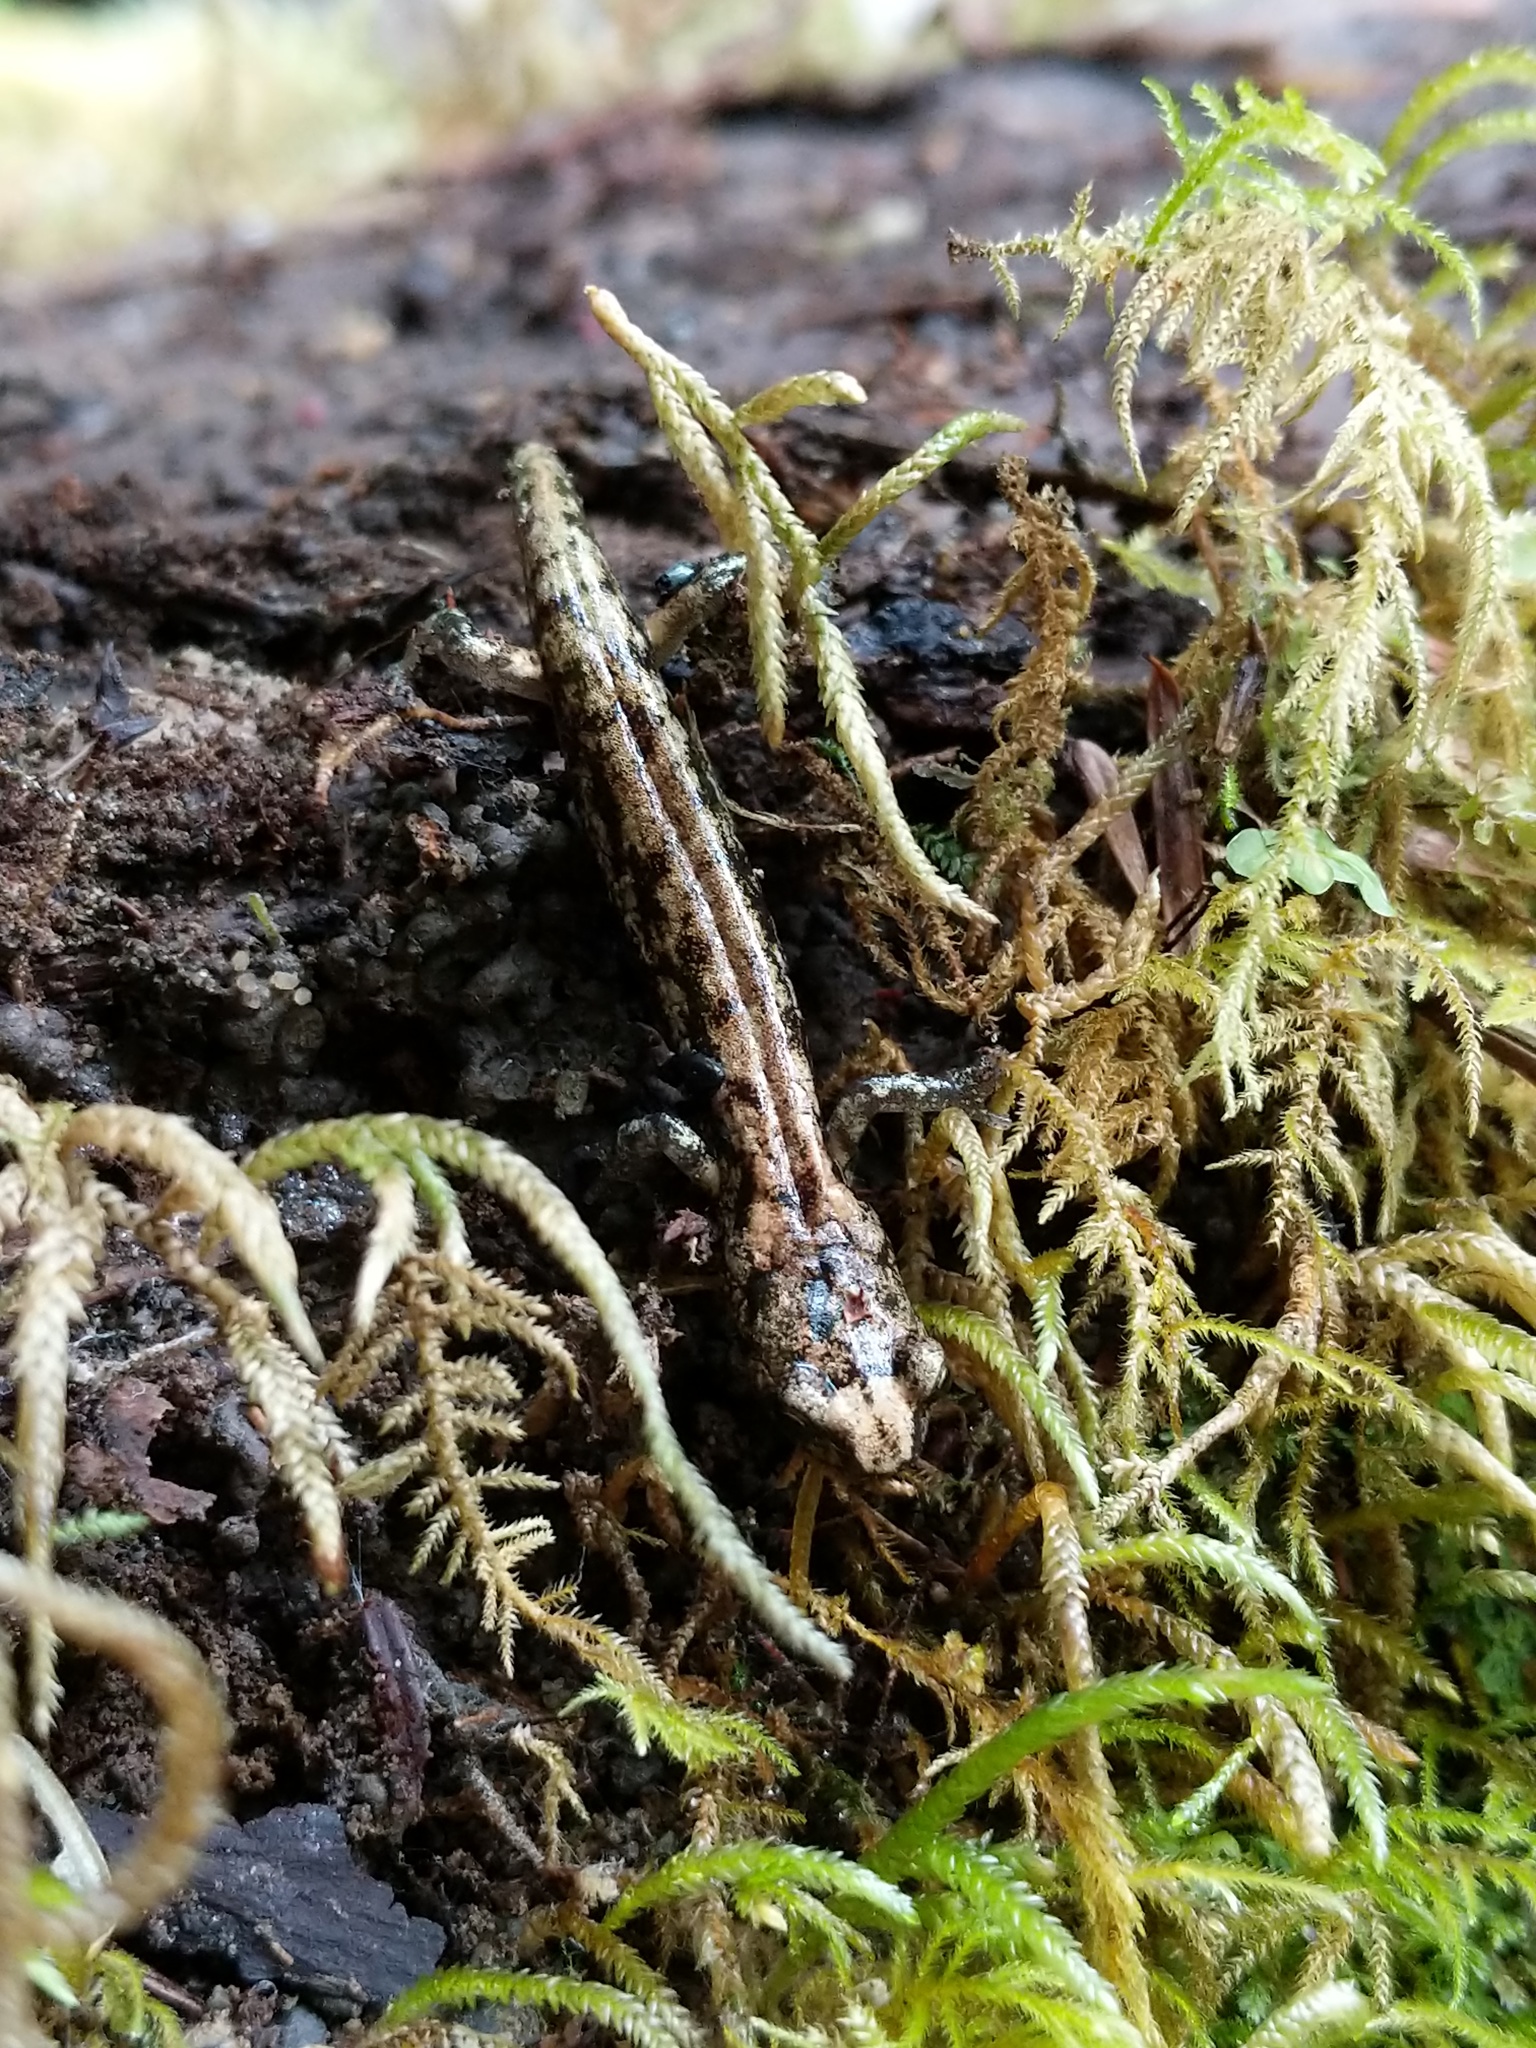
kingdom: Animalia
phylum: Chordata
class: Amphibia
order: Caudata
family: Plethodontidae
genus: Aneides
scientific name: Aneides vagrans
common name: Wandering salamander
